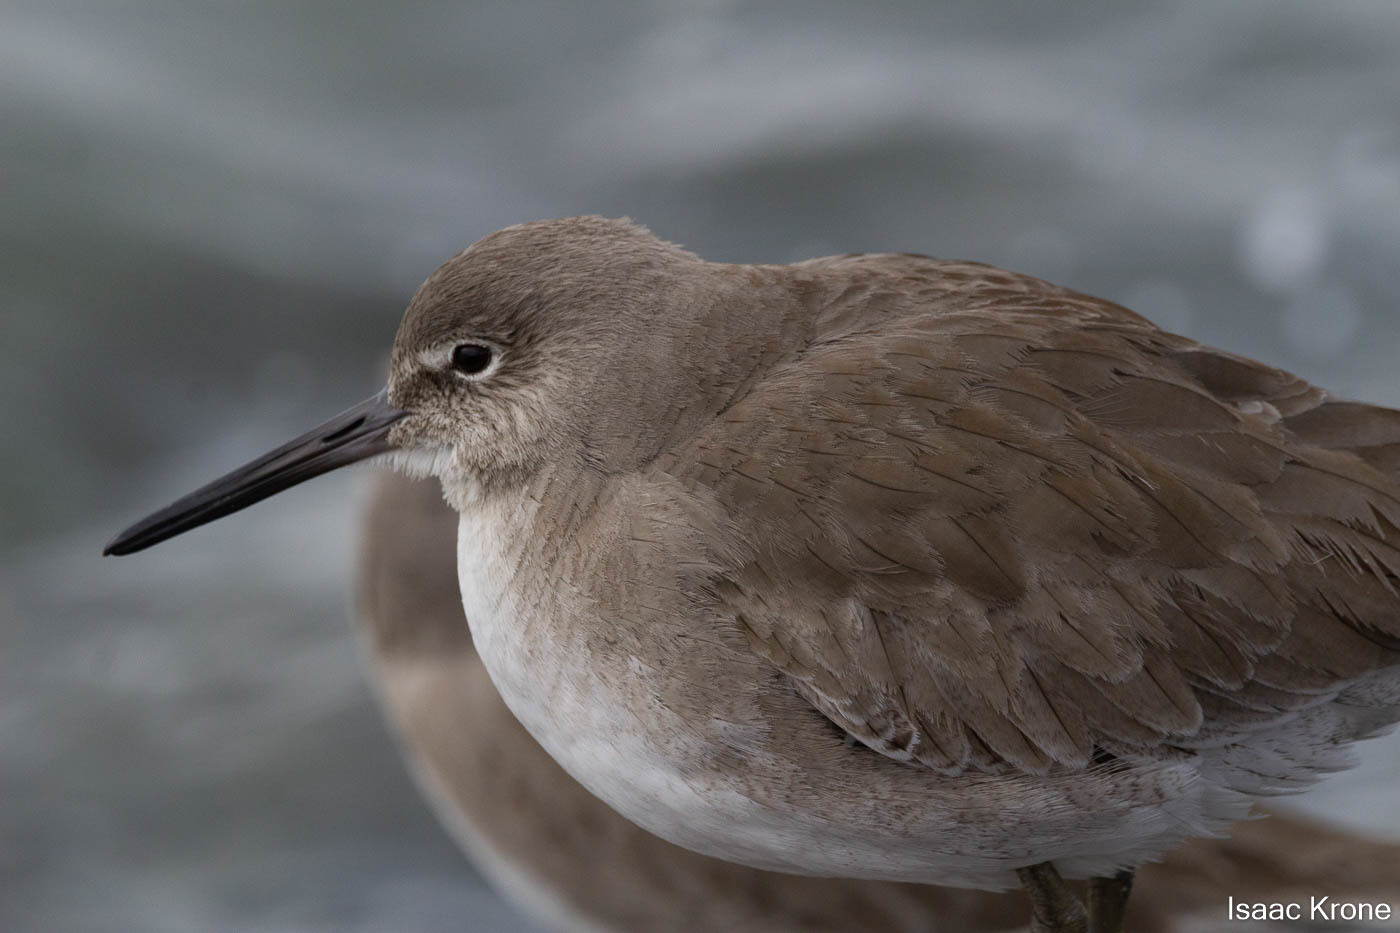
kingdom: Animalia
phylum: Chordata
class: Aves
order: Charadriiformes
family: Scolopacidae
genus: Tringa
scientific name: Tringa semipalmata
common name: Willet
